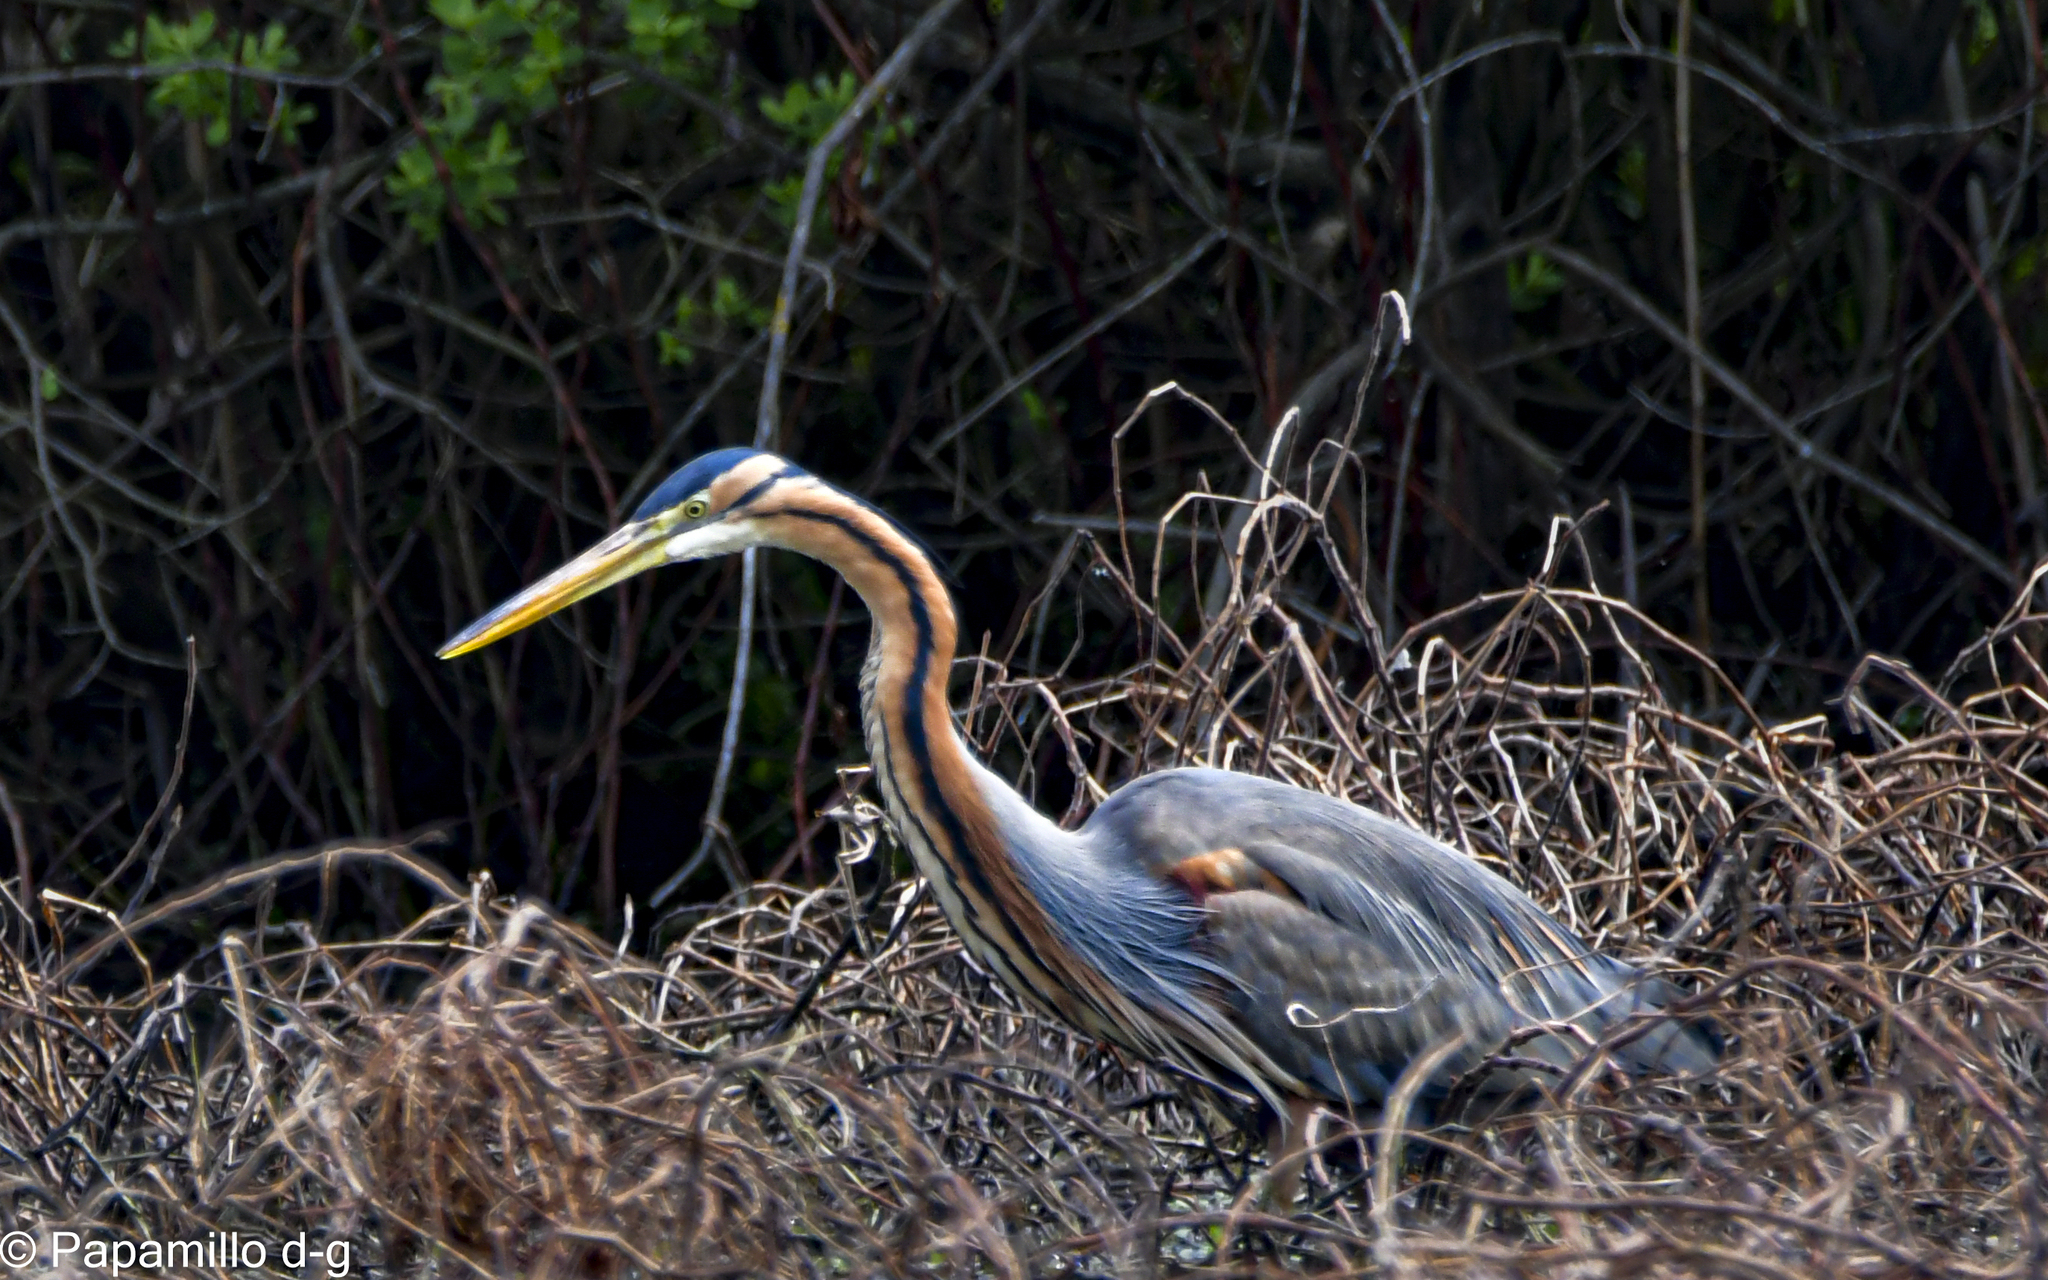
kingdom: Animalia
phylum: Chordata
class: Aves
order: Pelecaniformes
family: Ardeidae
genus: Ardea
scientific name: Ardea purpurea
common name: Purple heron
